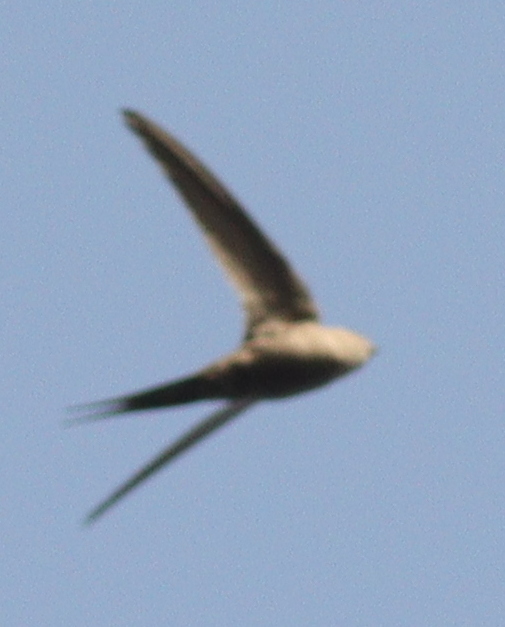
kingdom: Animalia
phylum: Chordata
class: Aves
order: Apodiformes
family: Apodidae
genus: Cypsiurus
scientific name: Cypsiurus parvus
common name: African palm swift
